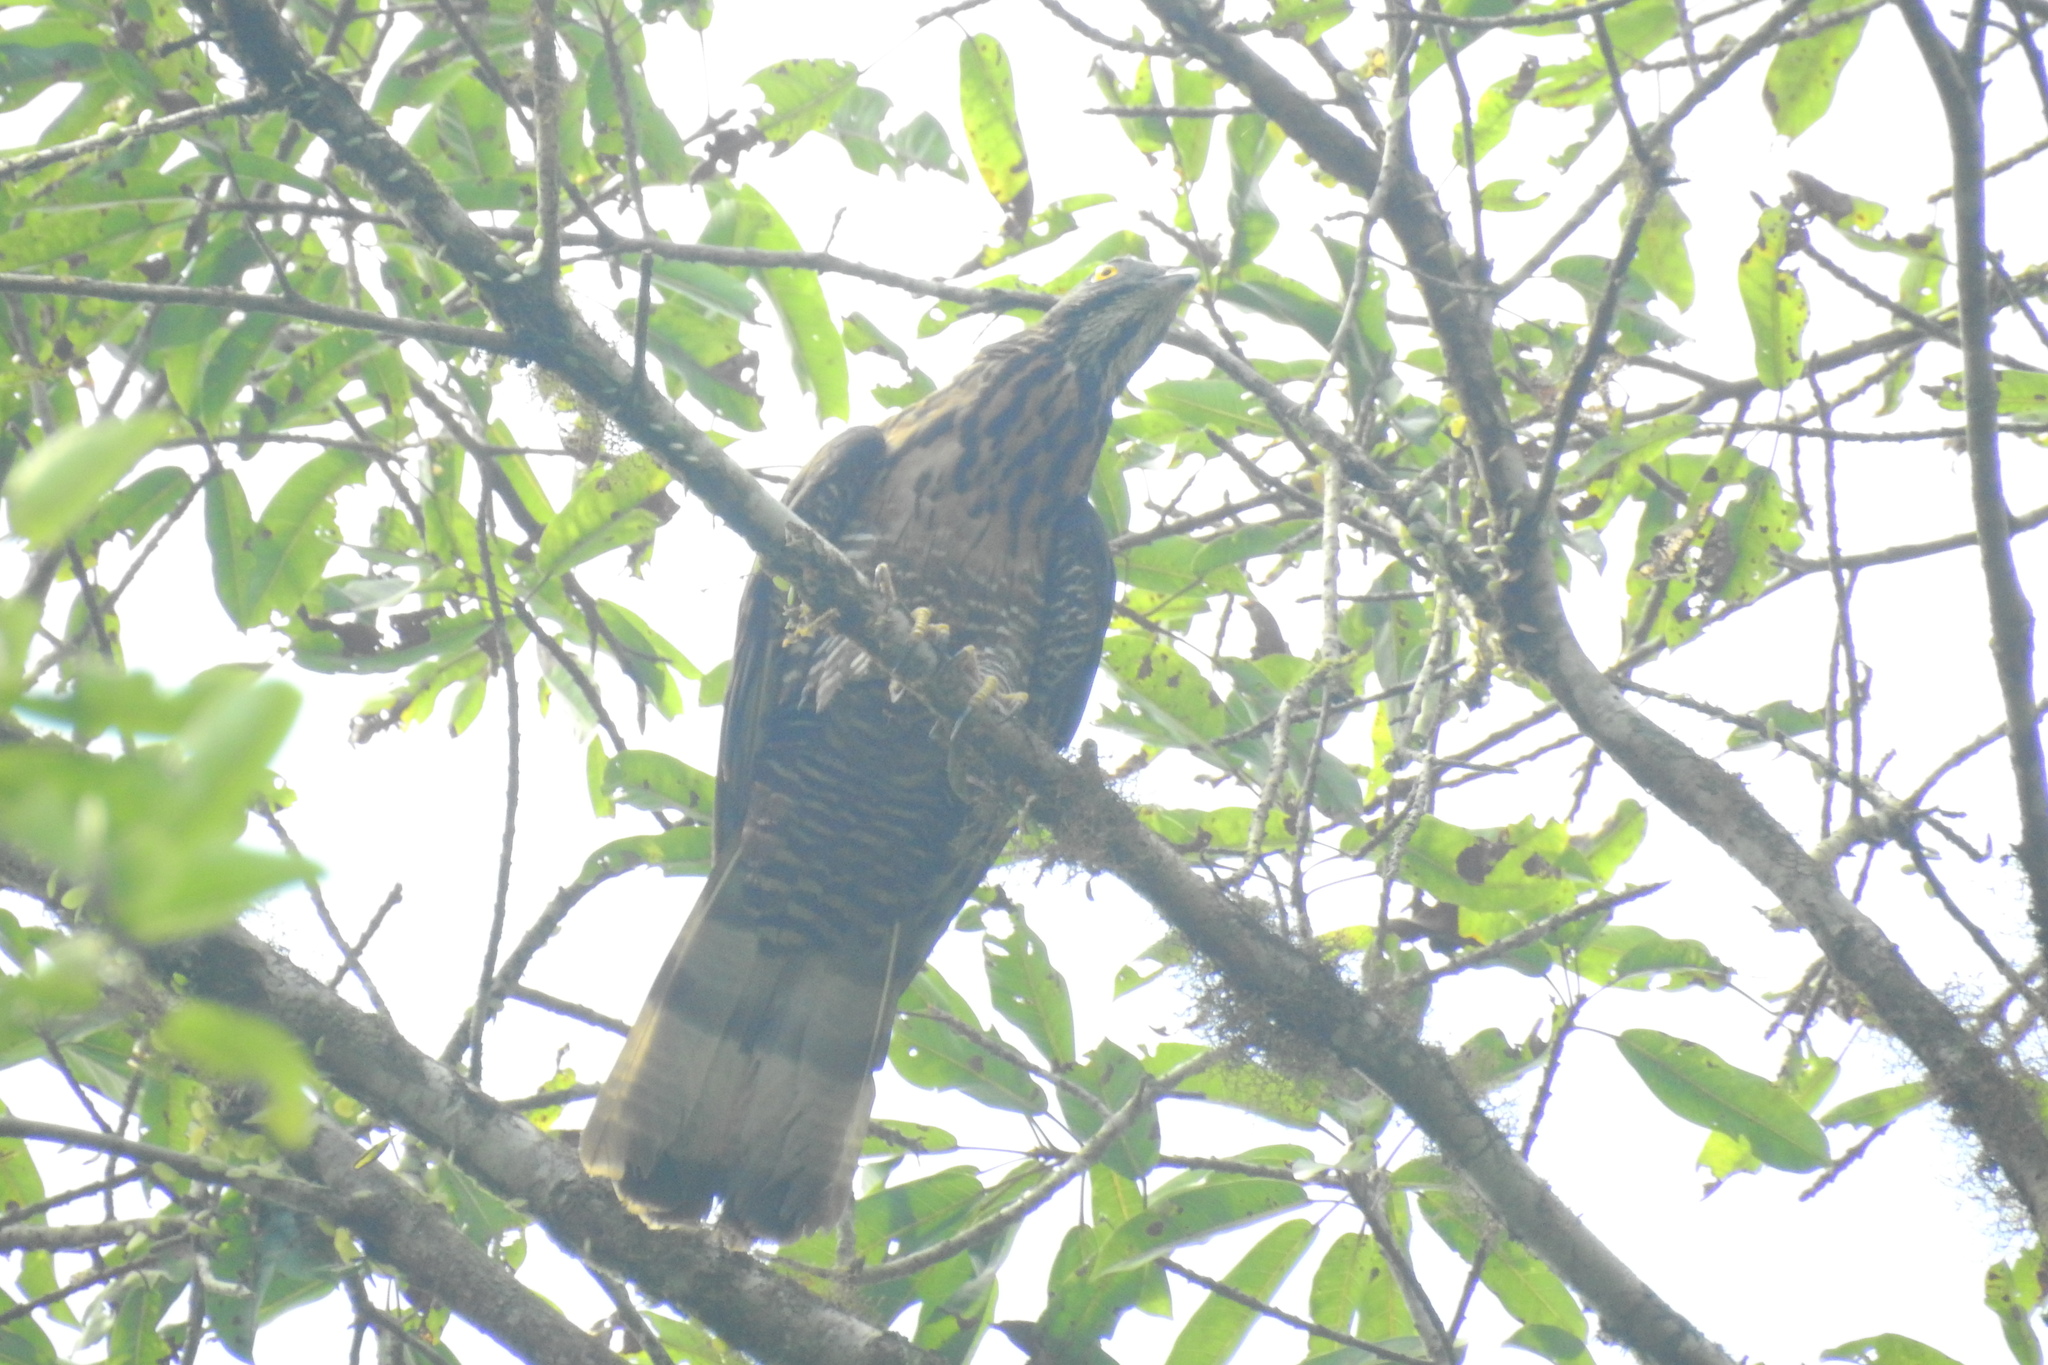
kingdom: Animalia
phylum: Chordata
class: Aves
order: Accipitriformes
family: Accipitridae
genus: Pernis
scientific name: Pernis celebensis
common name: Barred honey buzzard
